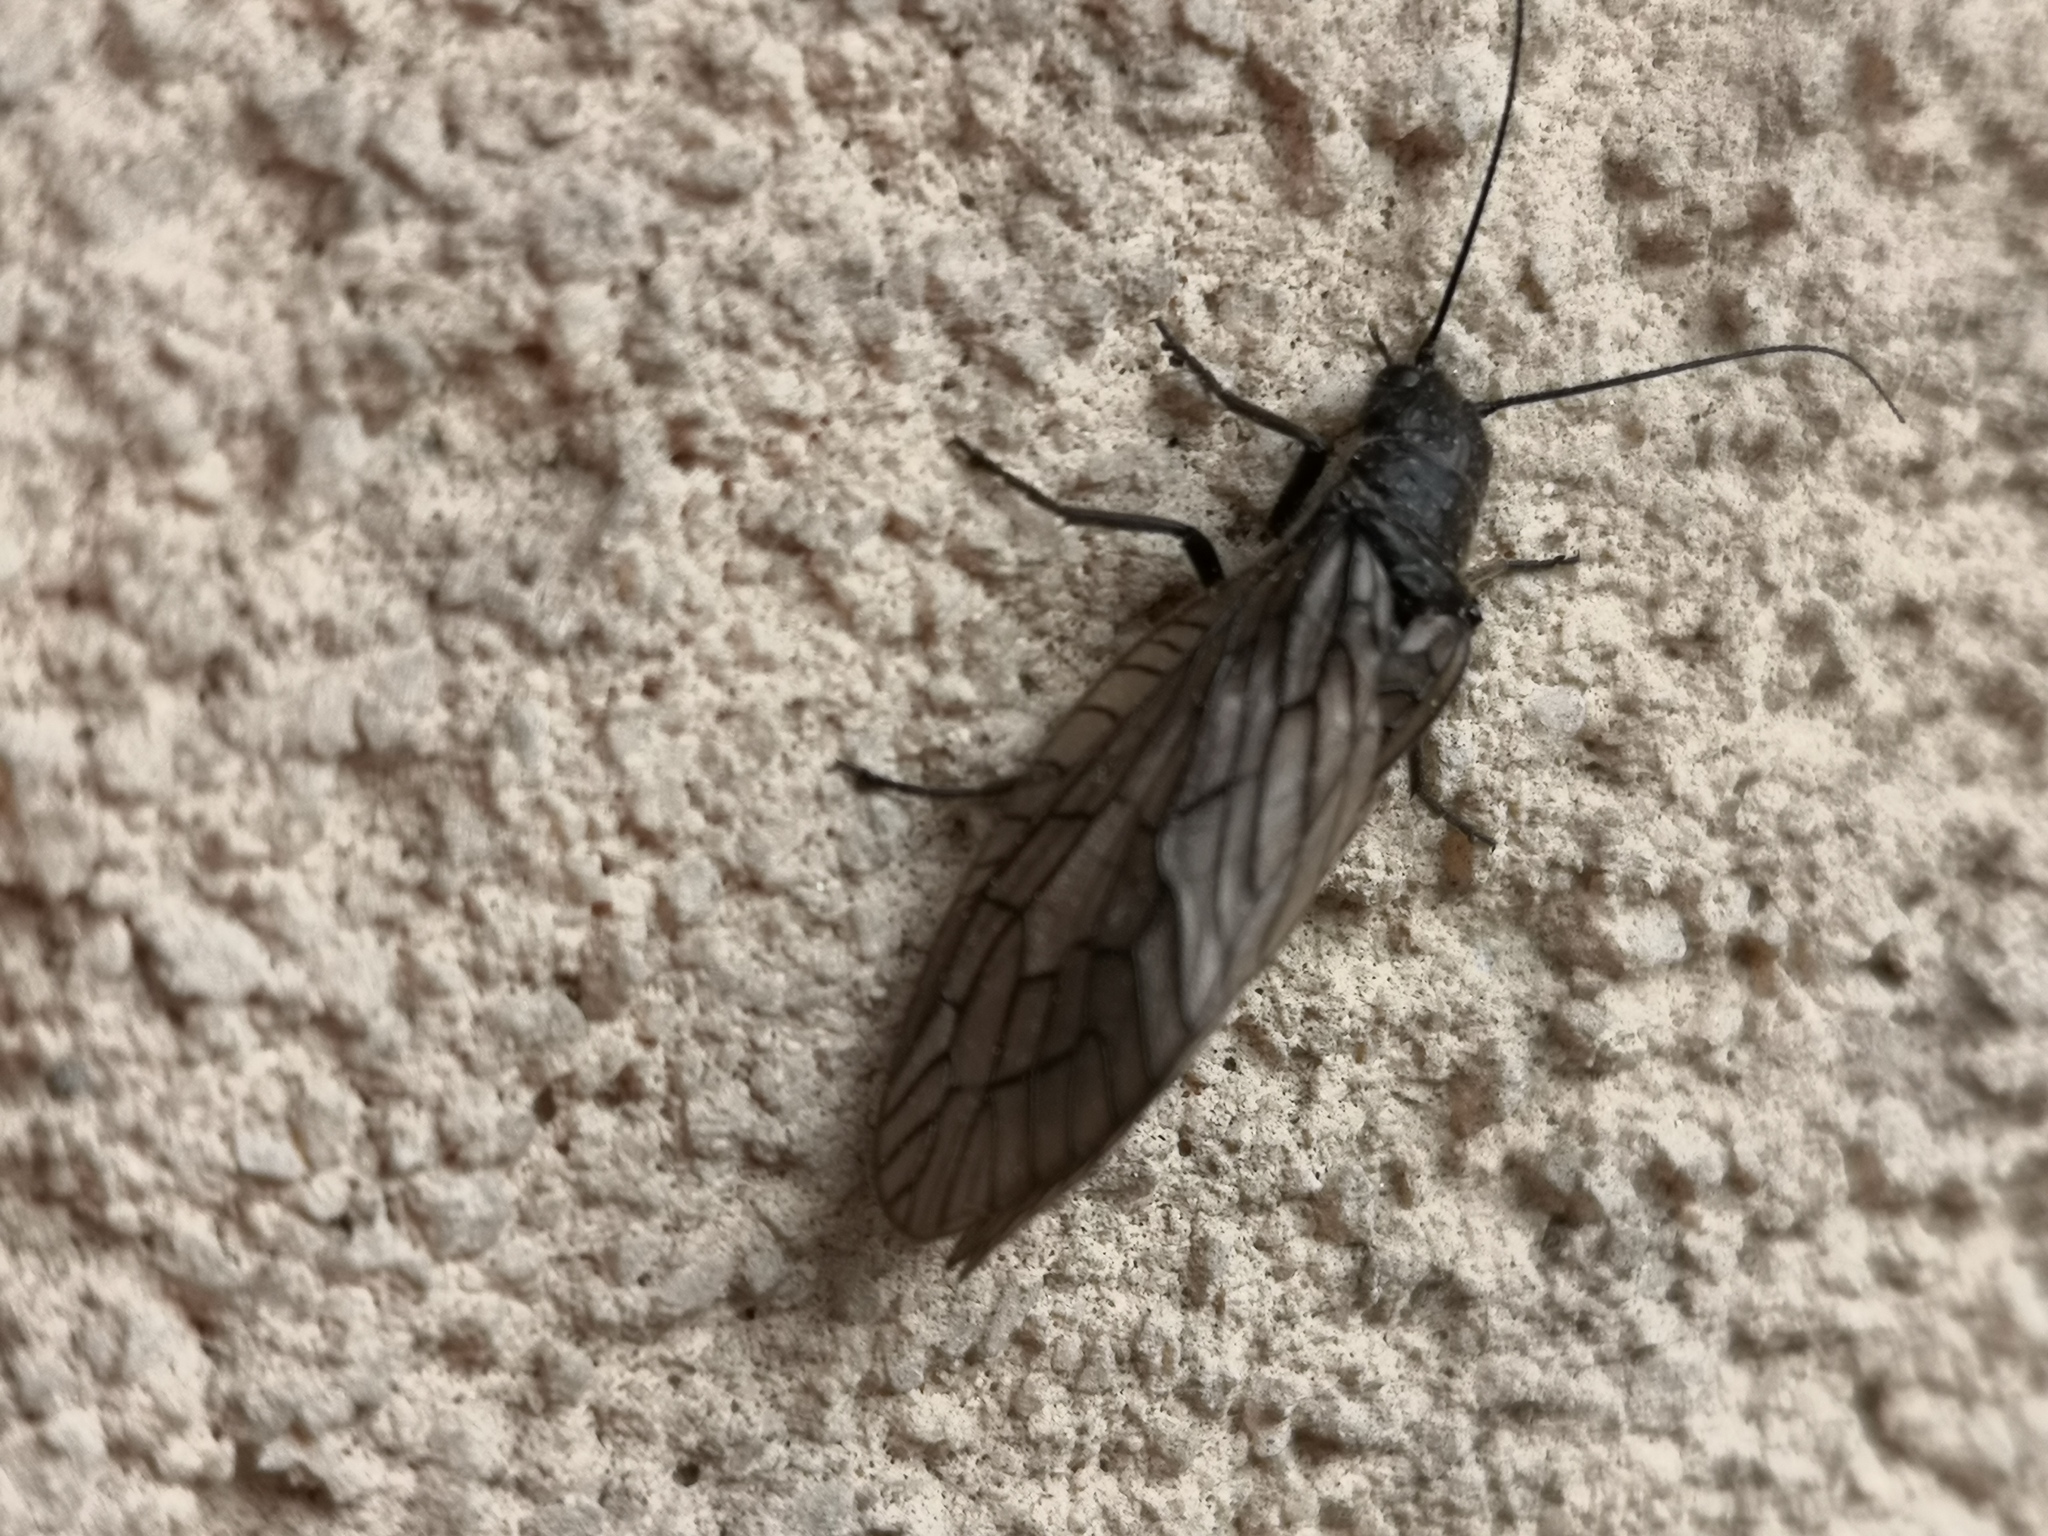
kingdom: Animalia
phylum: Arthropoda
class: Insecta
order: Megaloptera
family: Sialidae
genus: Sialis
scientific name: Sialis
